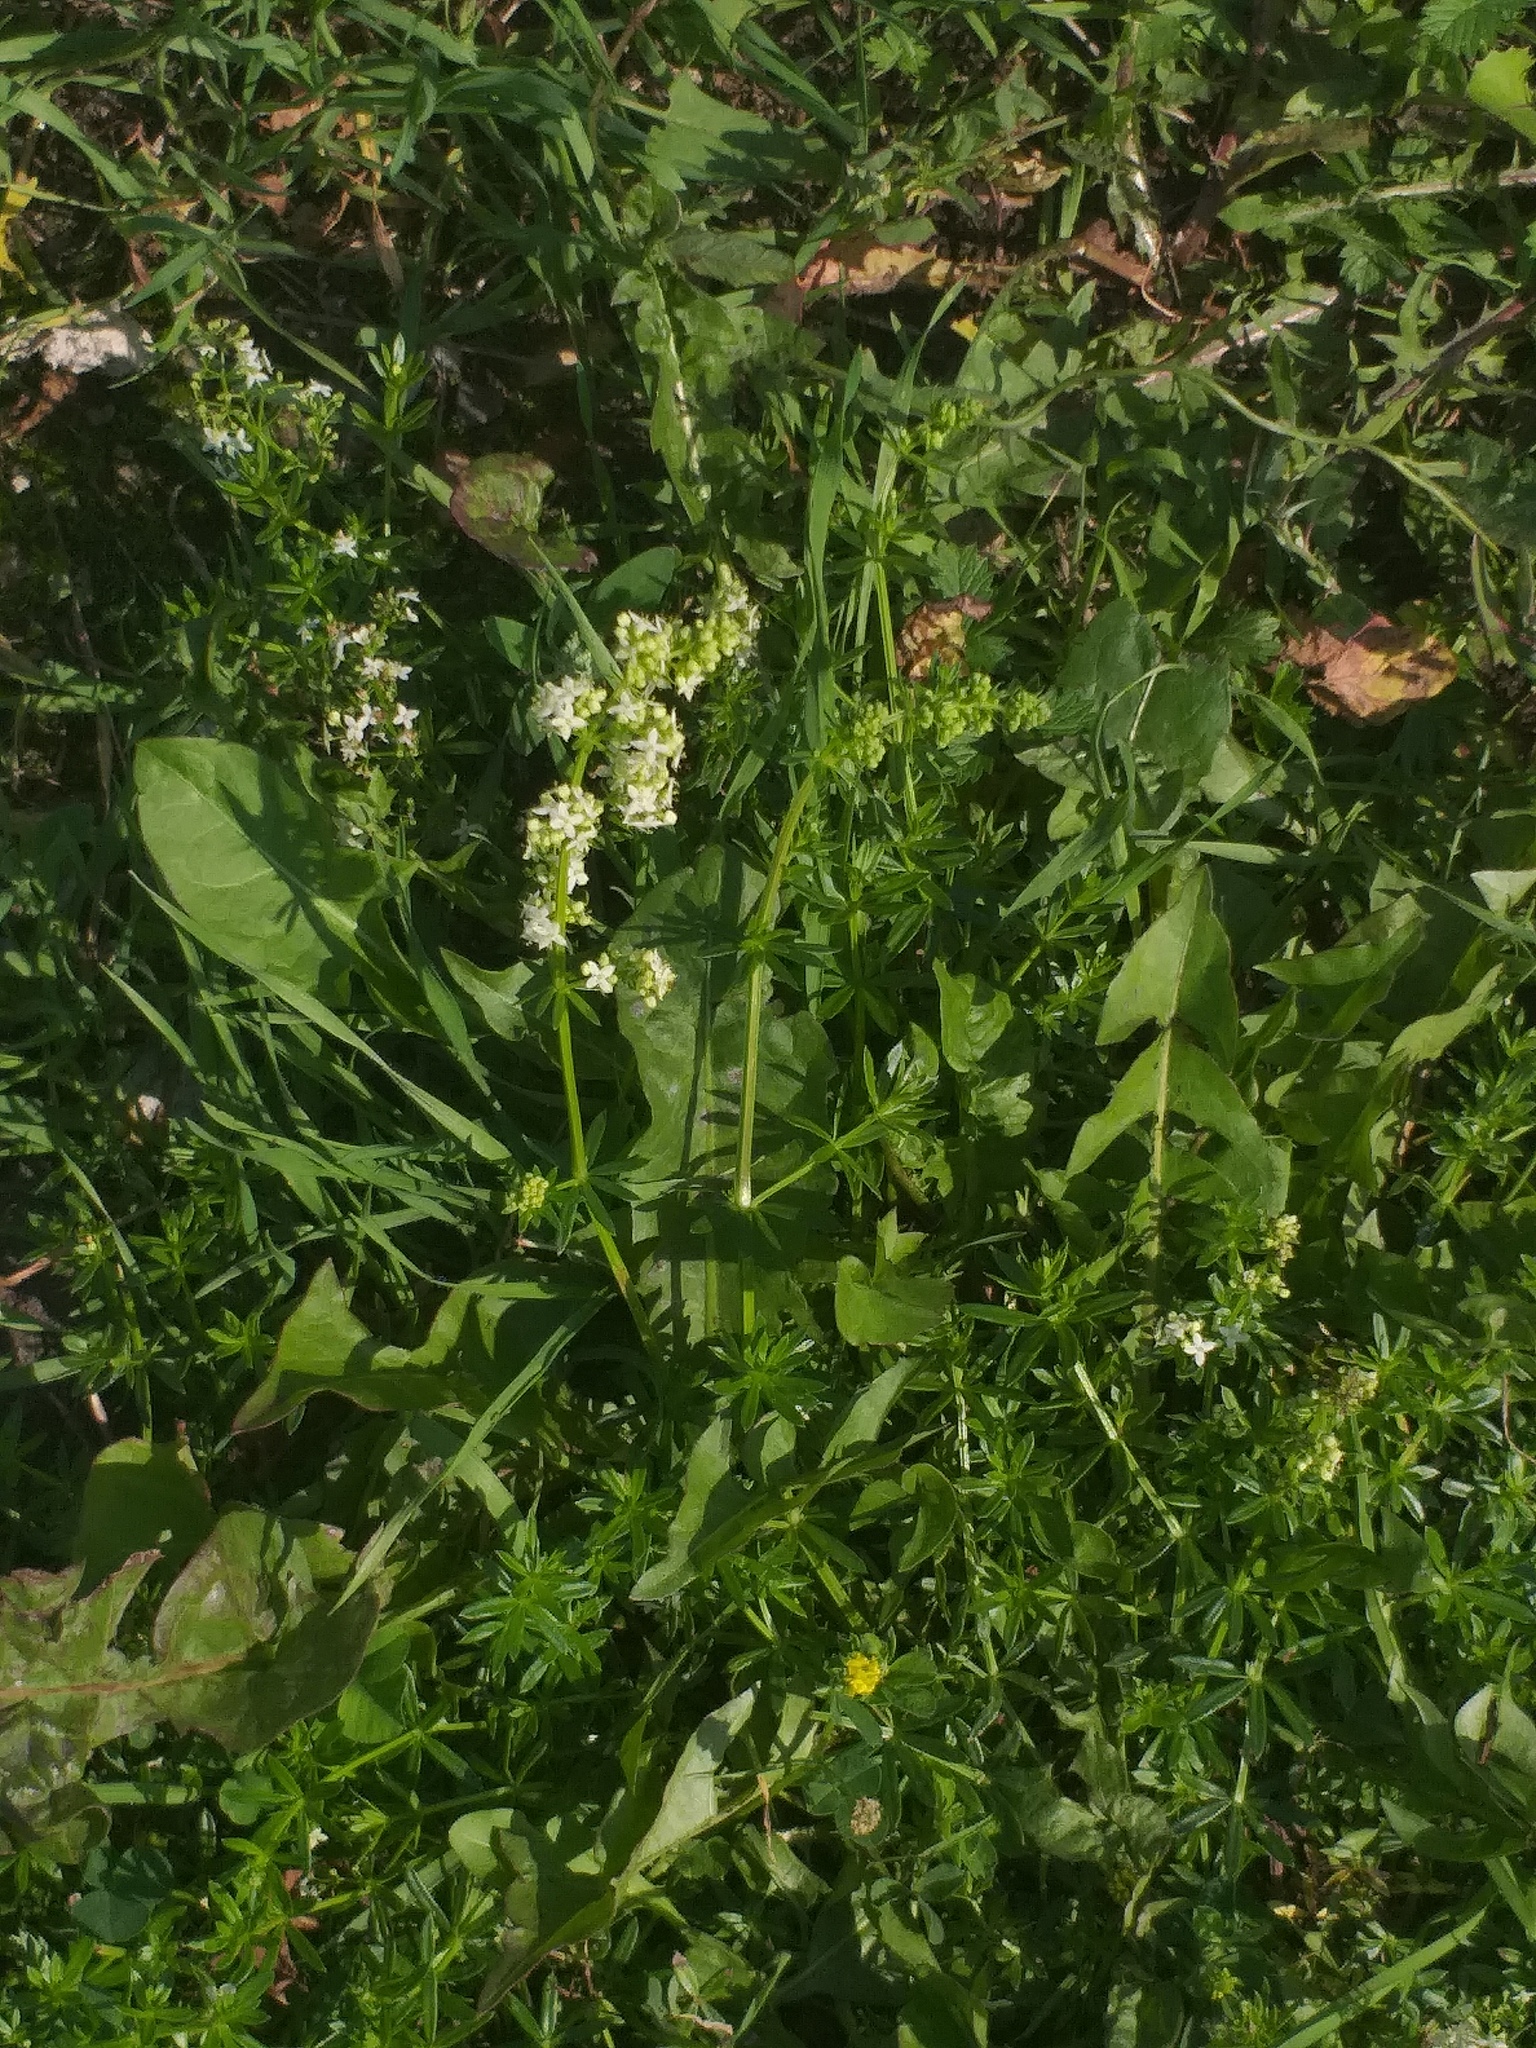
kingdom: Plantae
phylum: Tracheophyta
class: Magnoliopsida
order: Gentianales
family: Rubiaceae
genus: Galium
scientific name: Galium mollugo
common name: Hedge bedstraw
